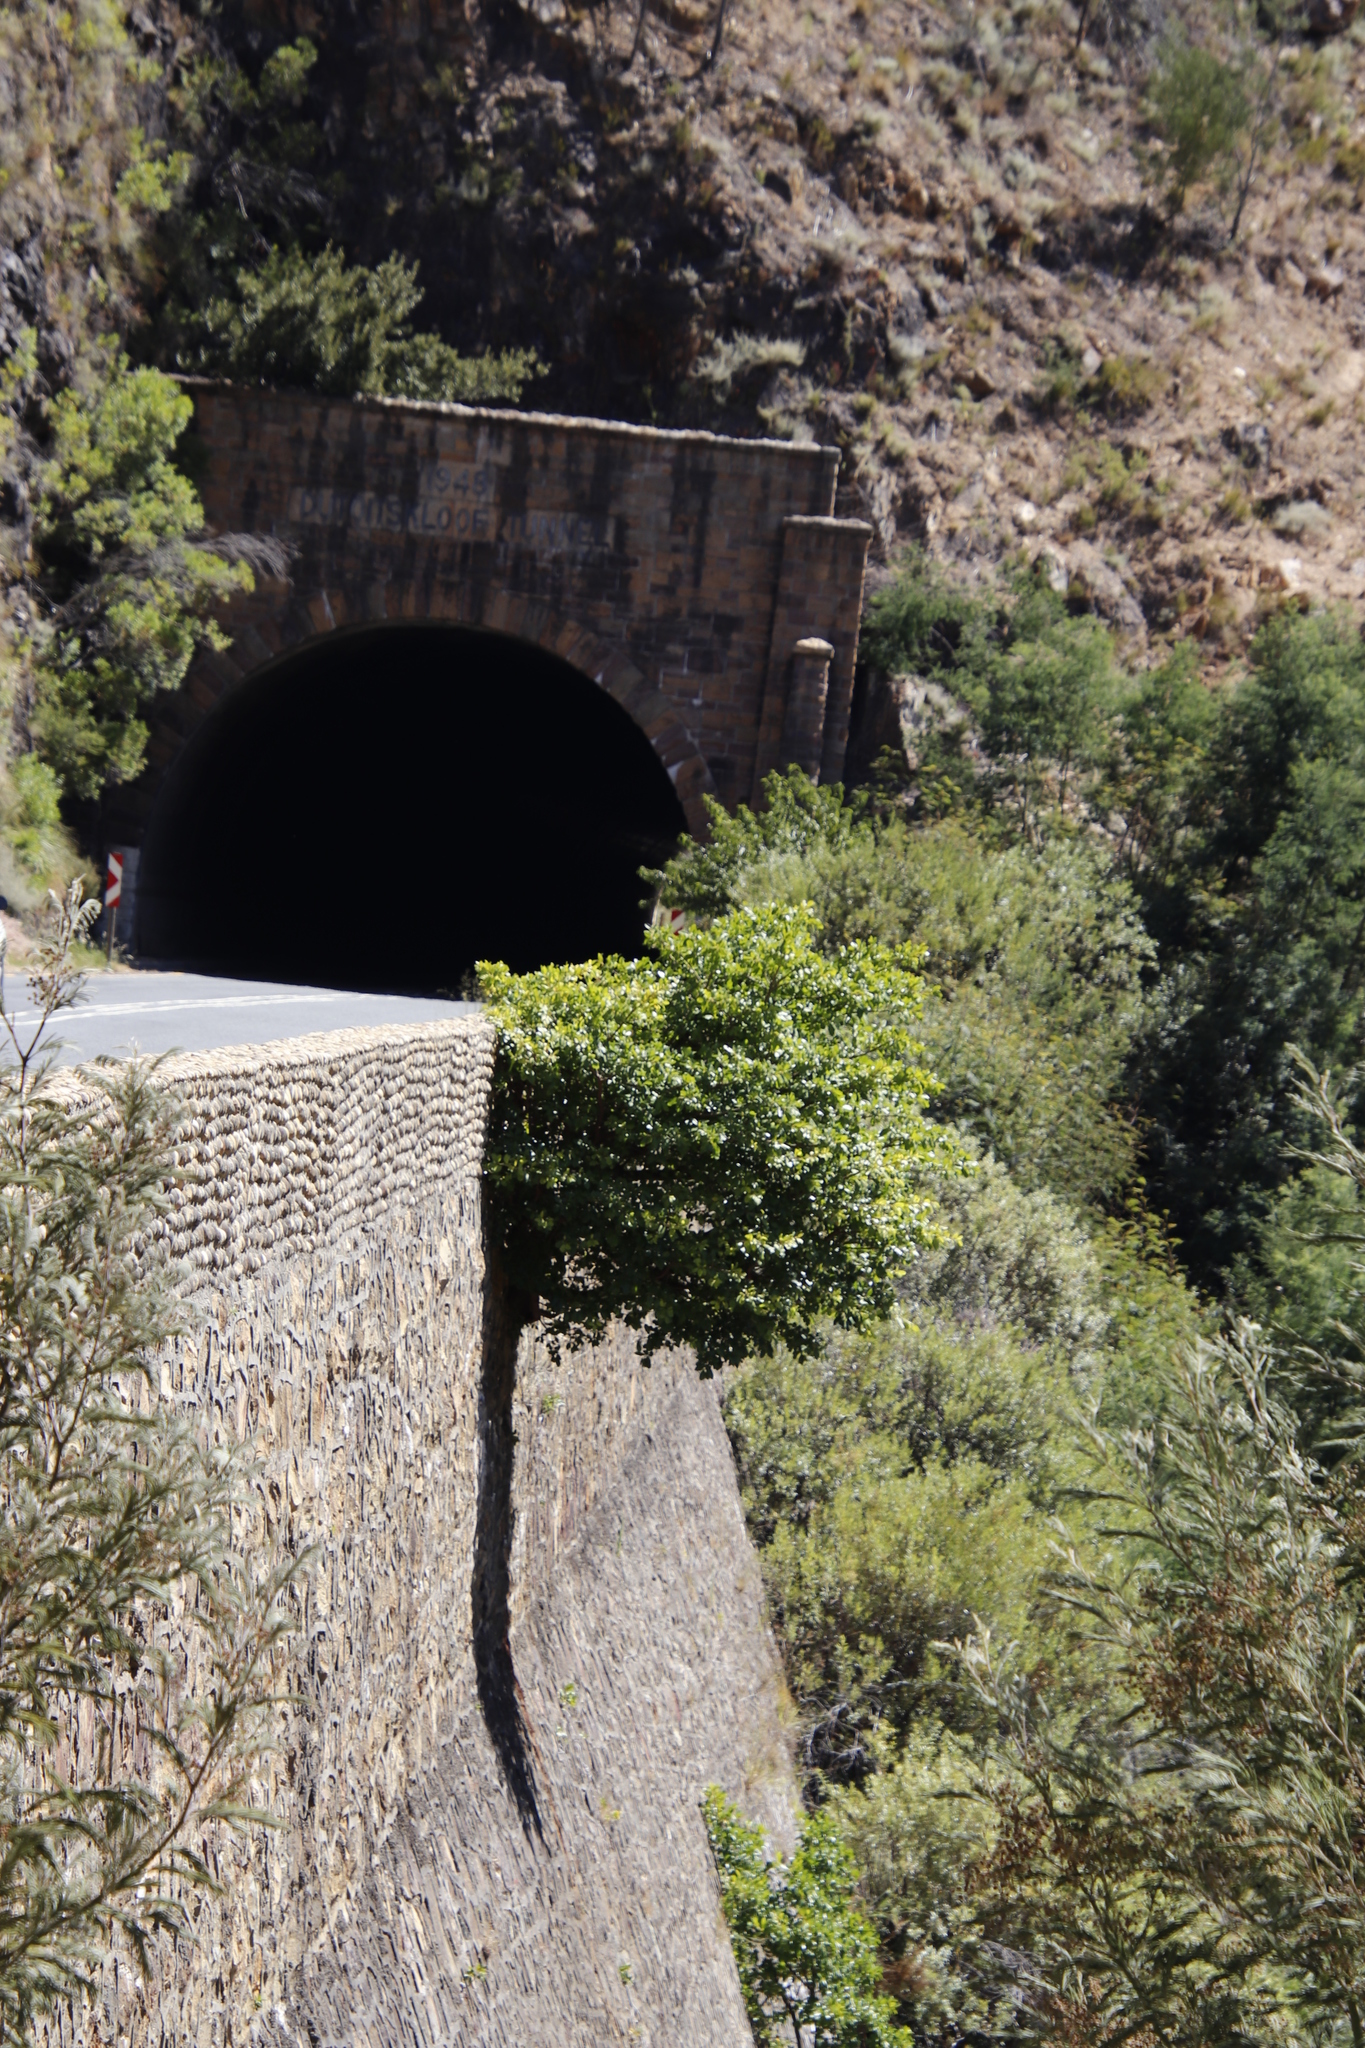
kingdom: Plantae
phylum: Tracheophyta
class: Magnoliopsida
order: Rosales
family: Moraceae
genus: Ficus
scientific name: Ficus thonningii
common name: Fig
